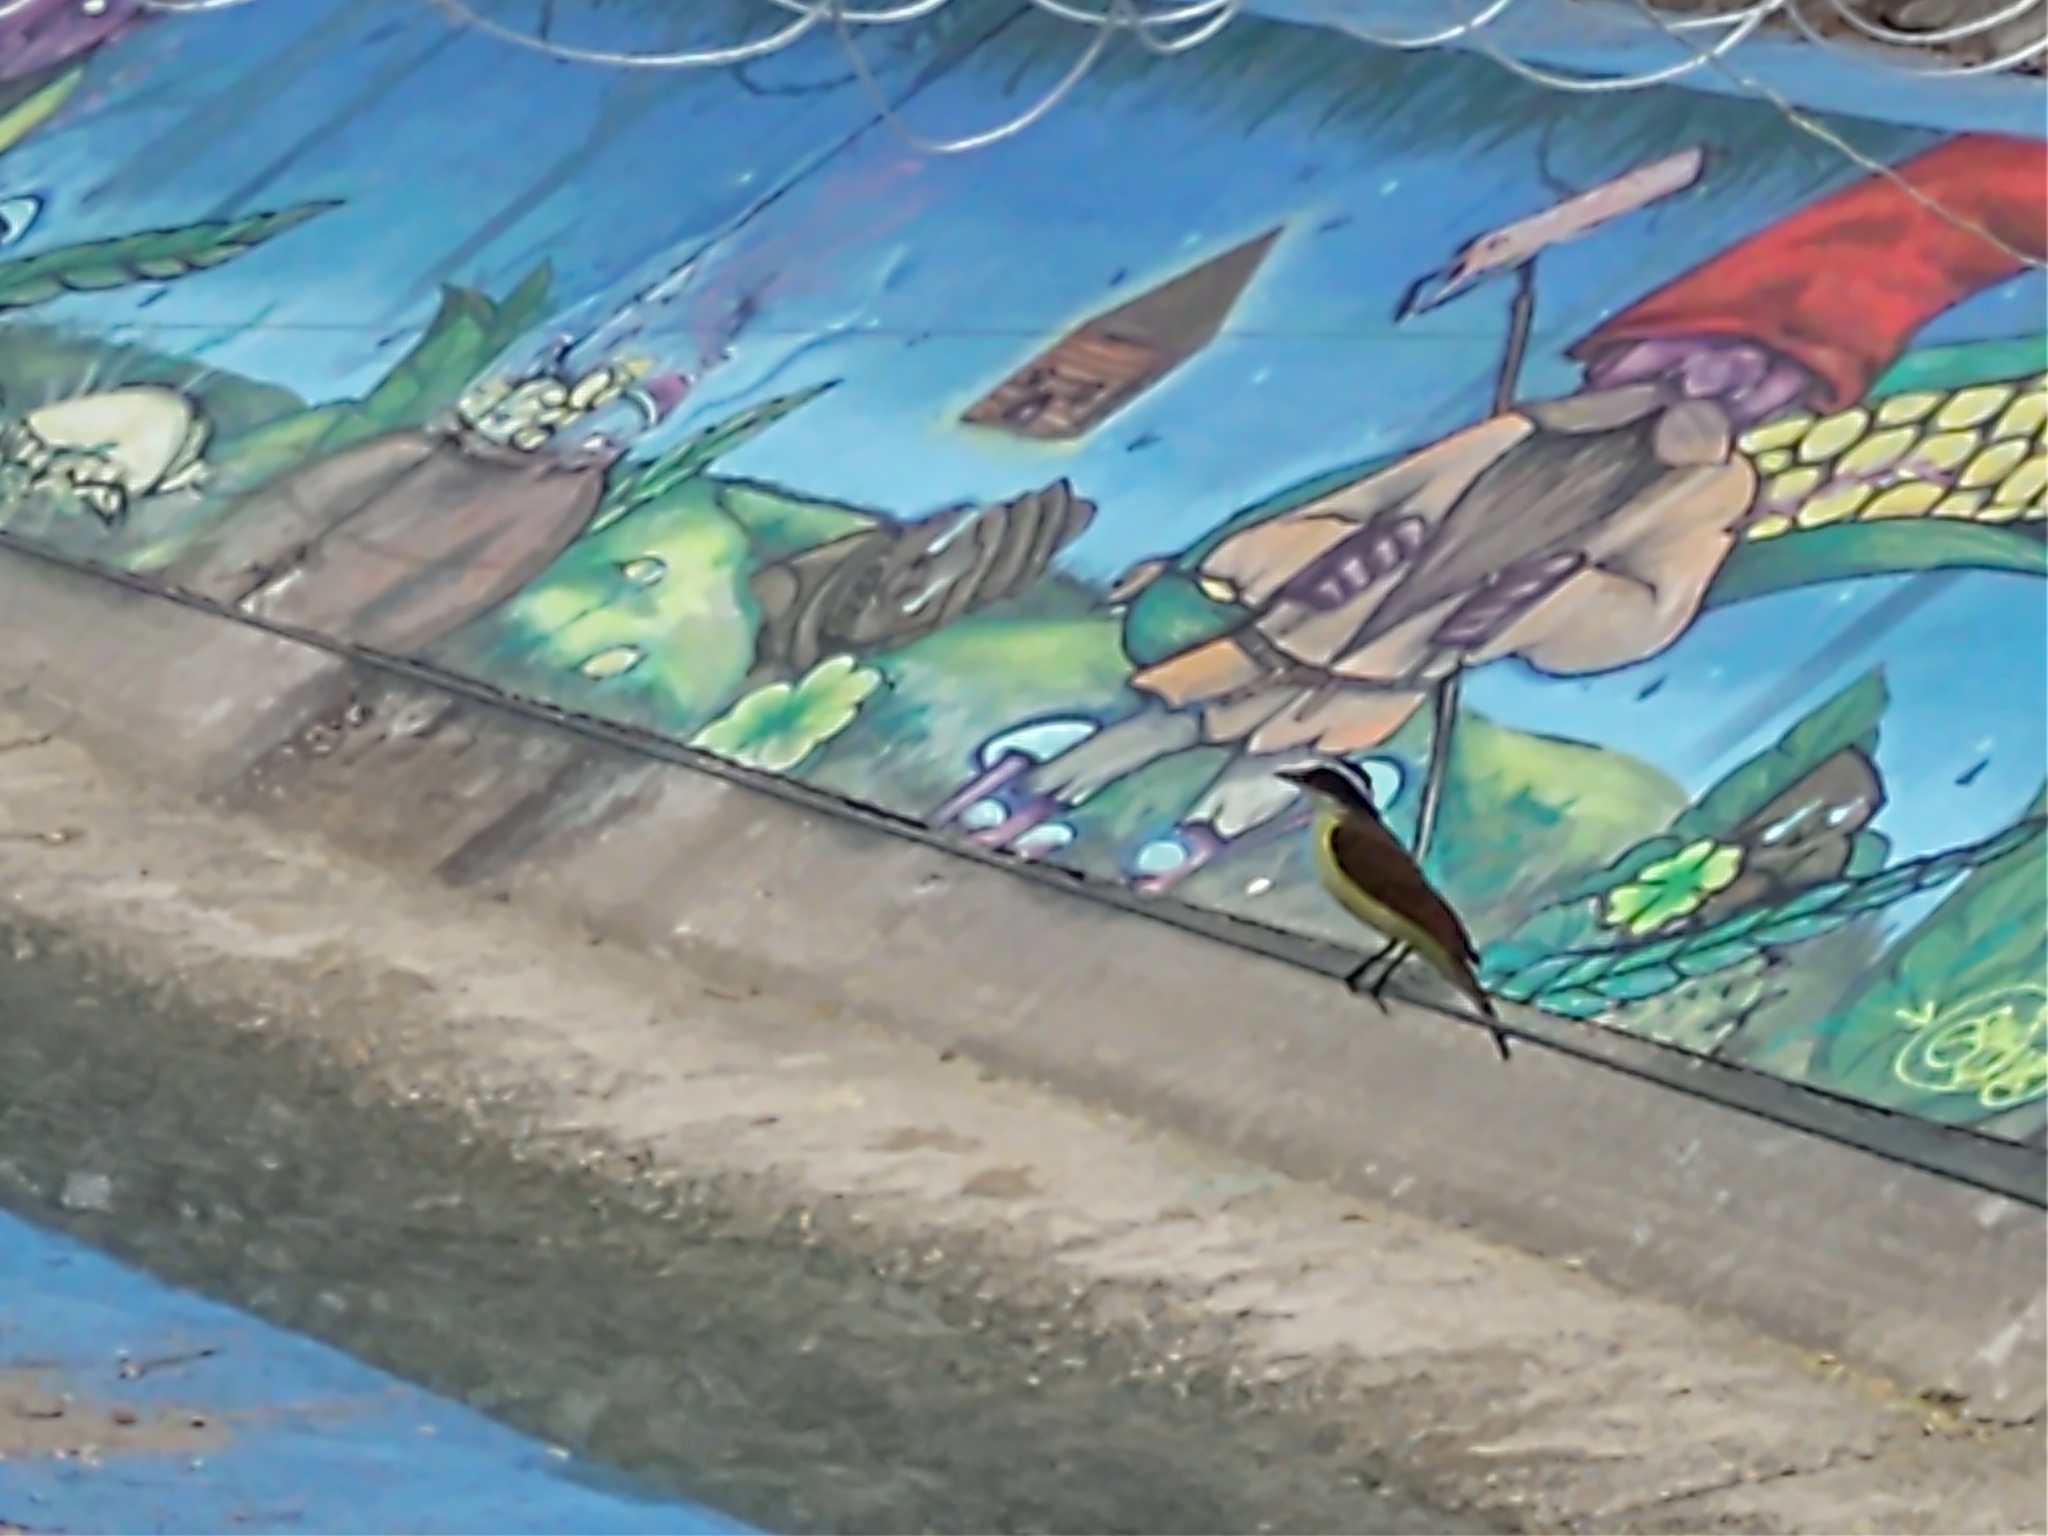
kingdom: Animalia
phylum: Chordata
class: Aves
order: Passeriformes
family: Tyrannidae
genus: Pitangus
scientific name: Pitangus sulphuratus
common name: Great kiskadee
